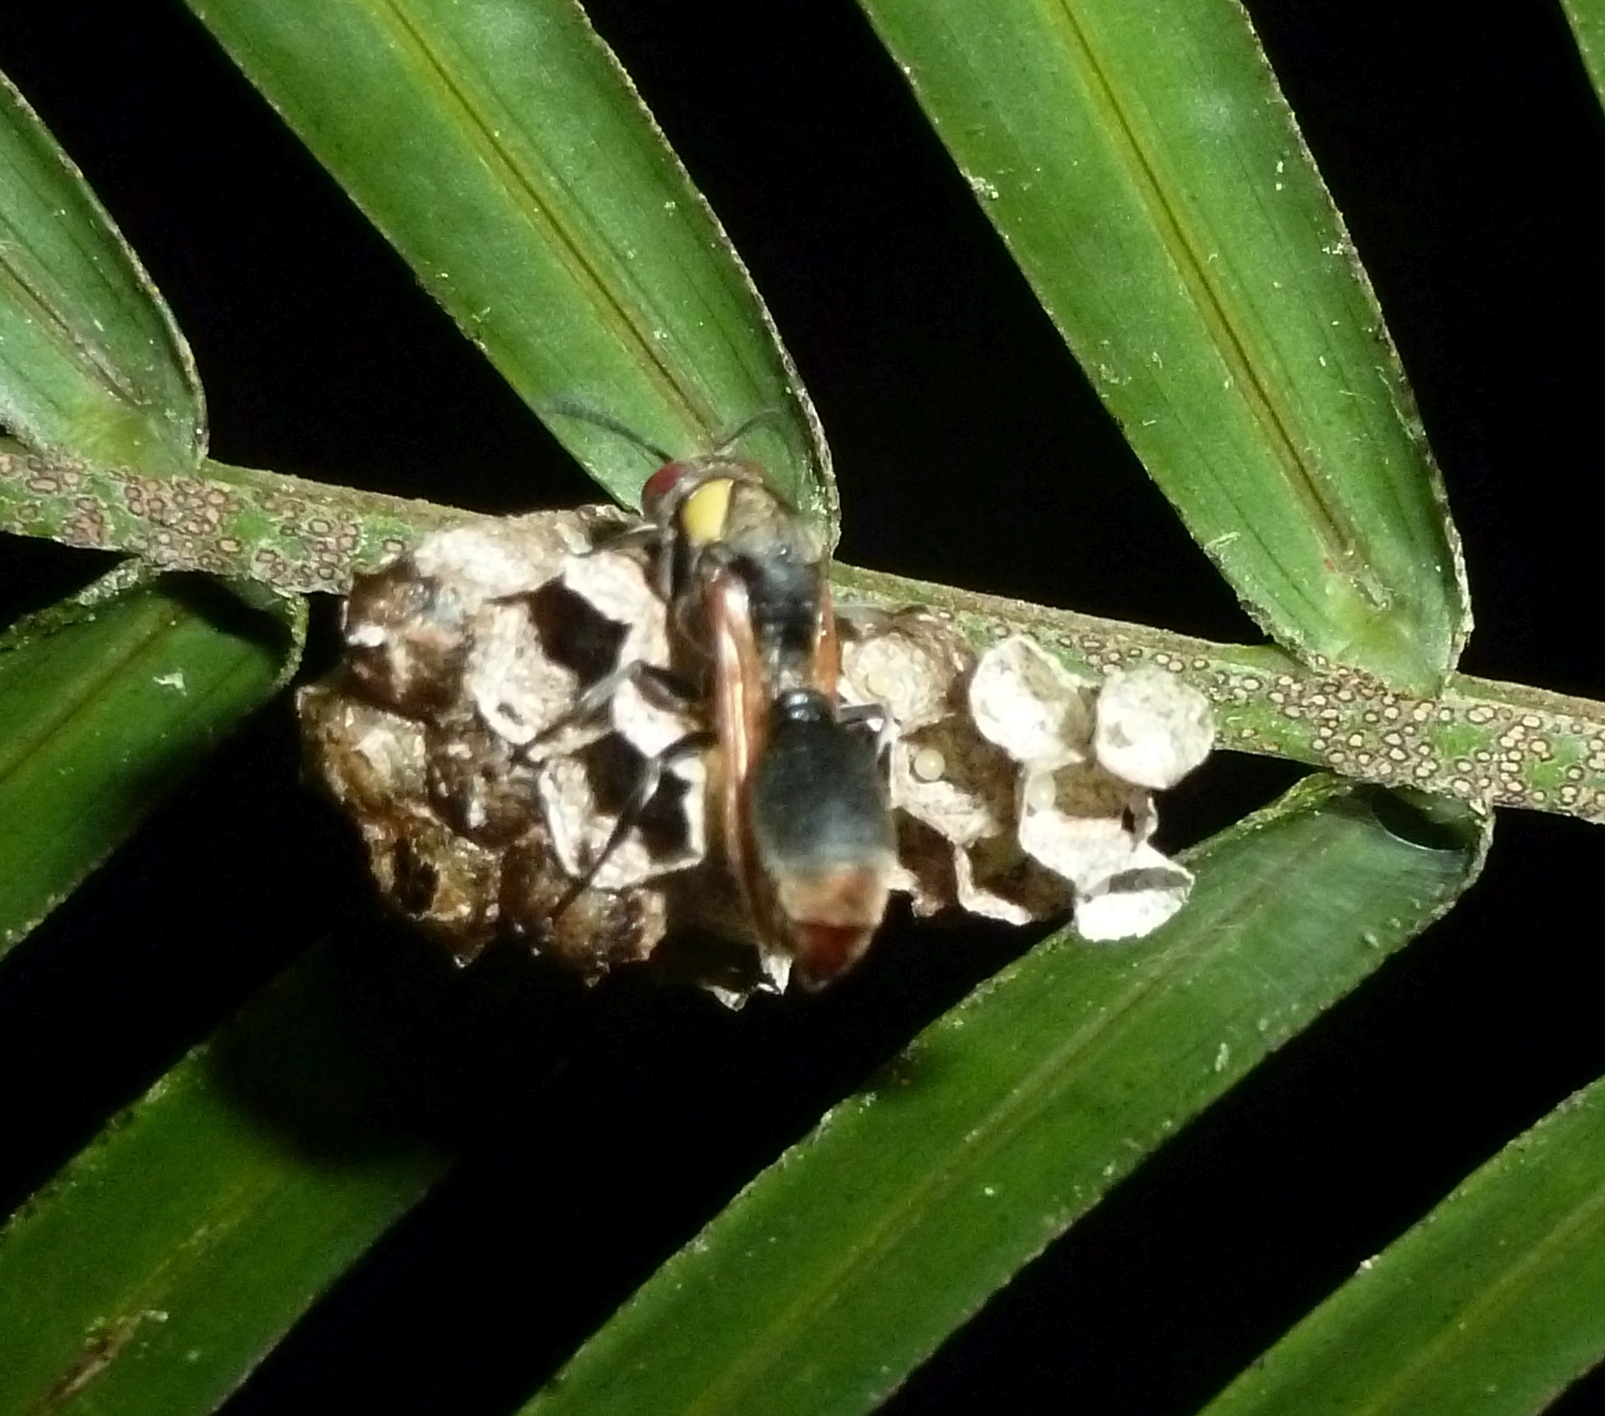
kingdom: Animalia
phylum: Arthropoda
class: Insecta
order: Hymenoptera
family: Vespidae
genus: Ropalidia
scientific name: Ropalidia anarchia
